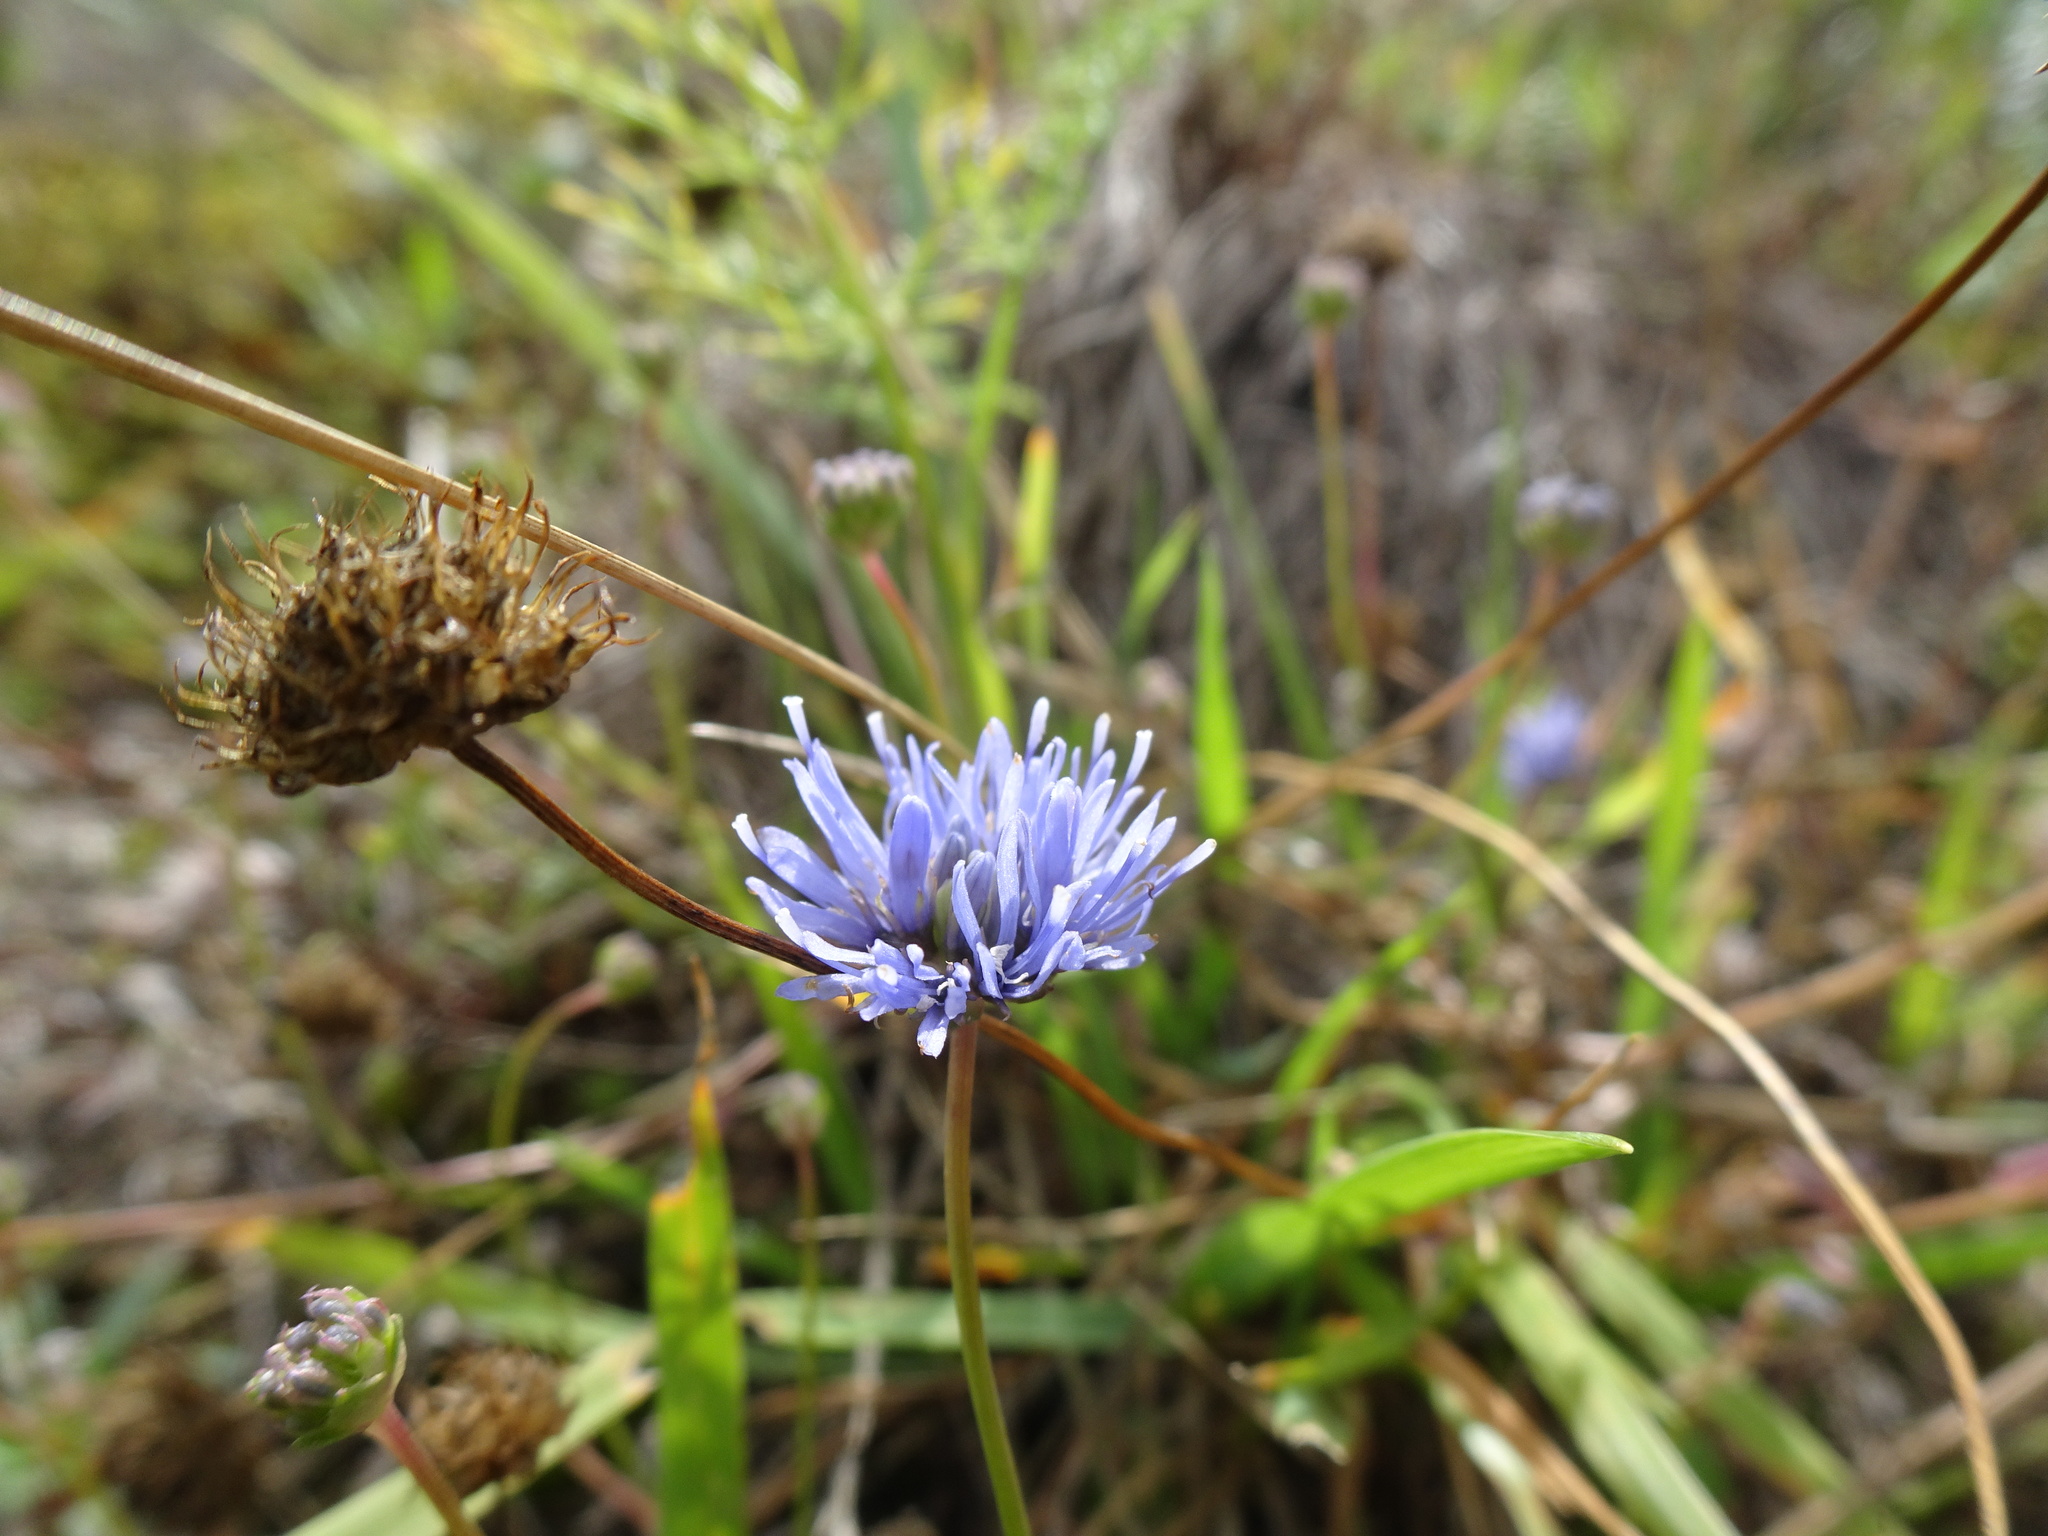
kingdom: Plantae
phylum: Tracheophyta
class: Magnoliopsida
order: Asterales
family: Campanulaceae
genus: Jasione
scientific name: Jasione montana
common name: Sheep's-bit
